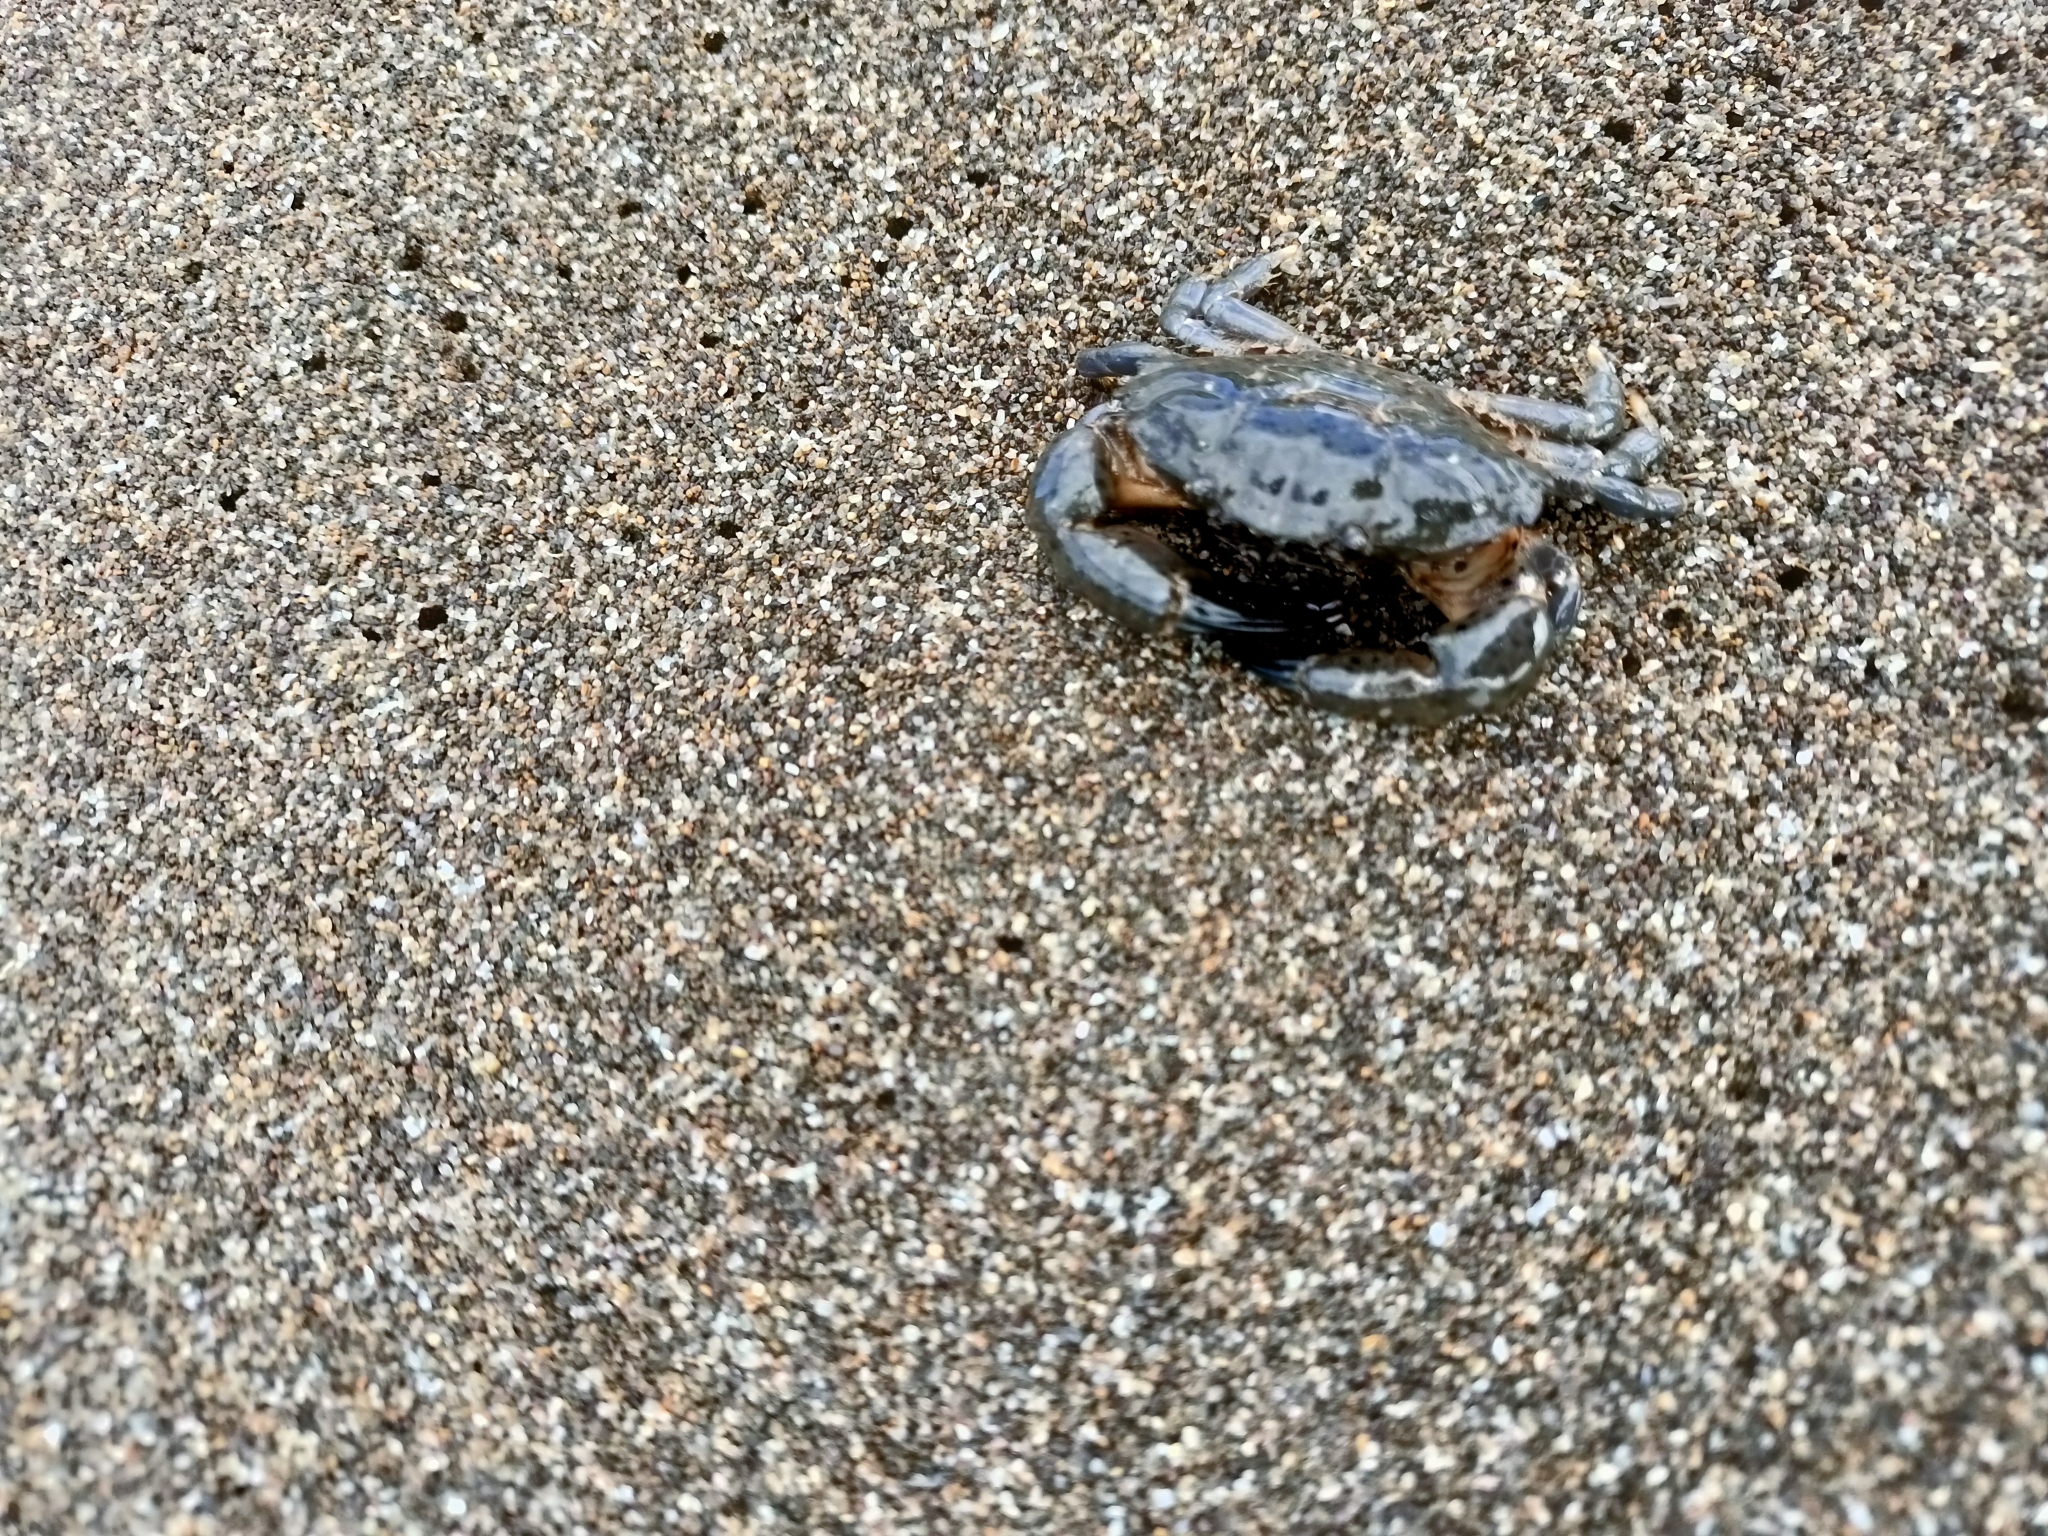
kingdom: Animalia
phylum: Arthropoda
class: Malacostraca
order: Decapoda
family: Xanthidae
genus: Xantho
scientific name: Xantho poressa
